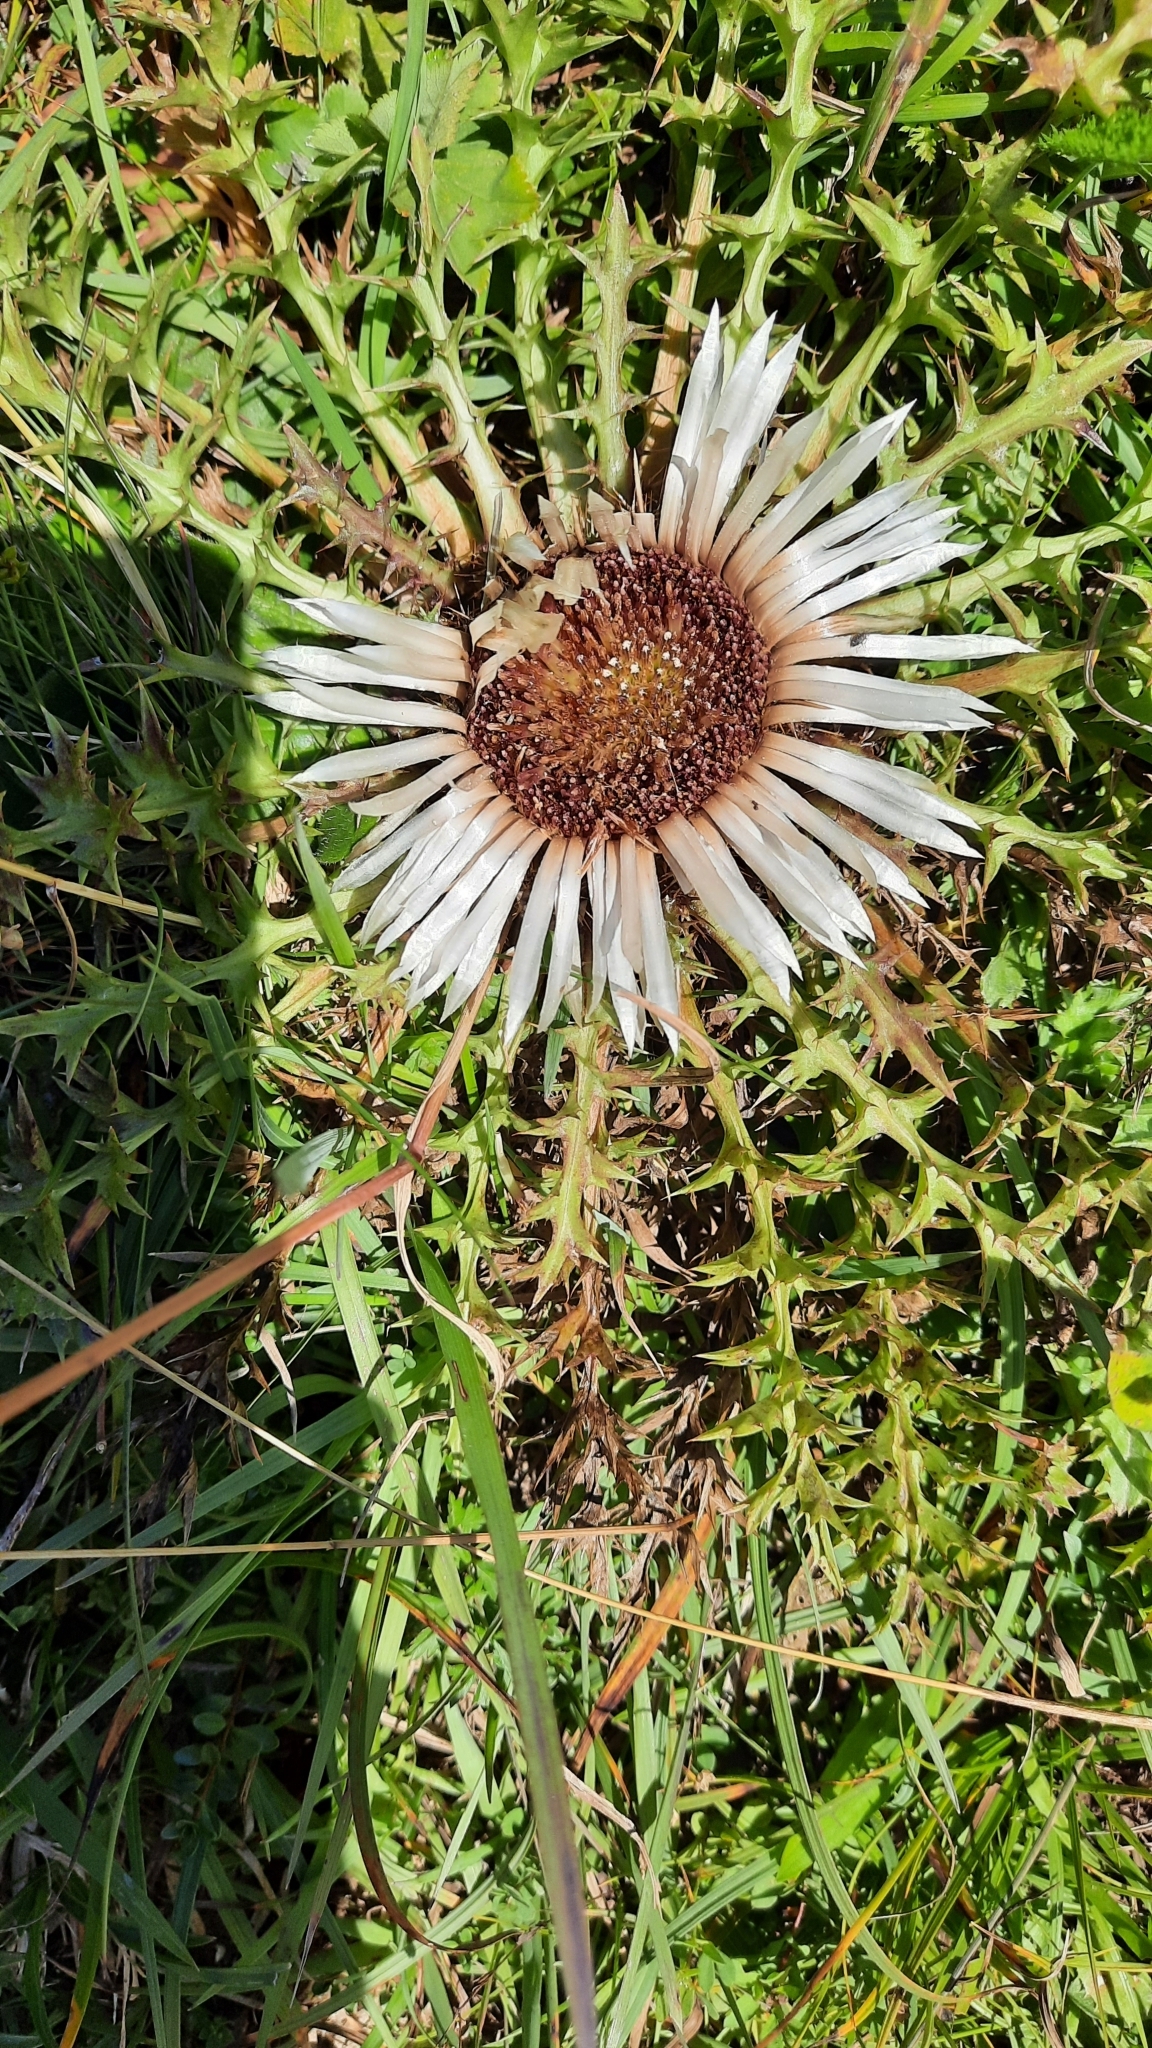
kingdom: Plantae
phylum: Tracheophyta
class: Magnoliopsida
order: Asterales
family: Asteraceae
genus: Carlina
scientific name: Carlina acaulis
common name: Stemless carline thistle
